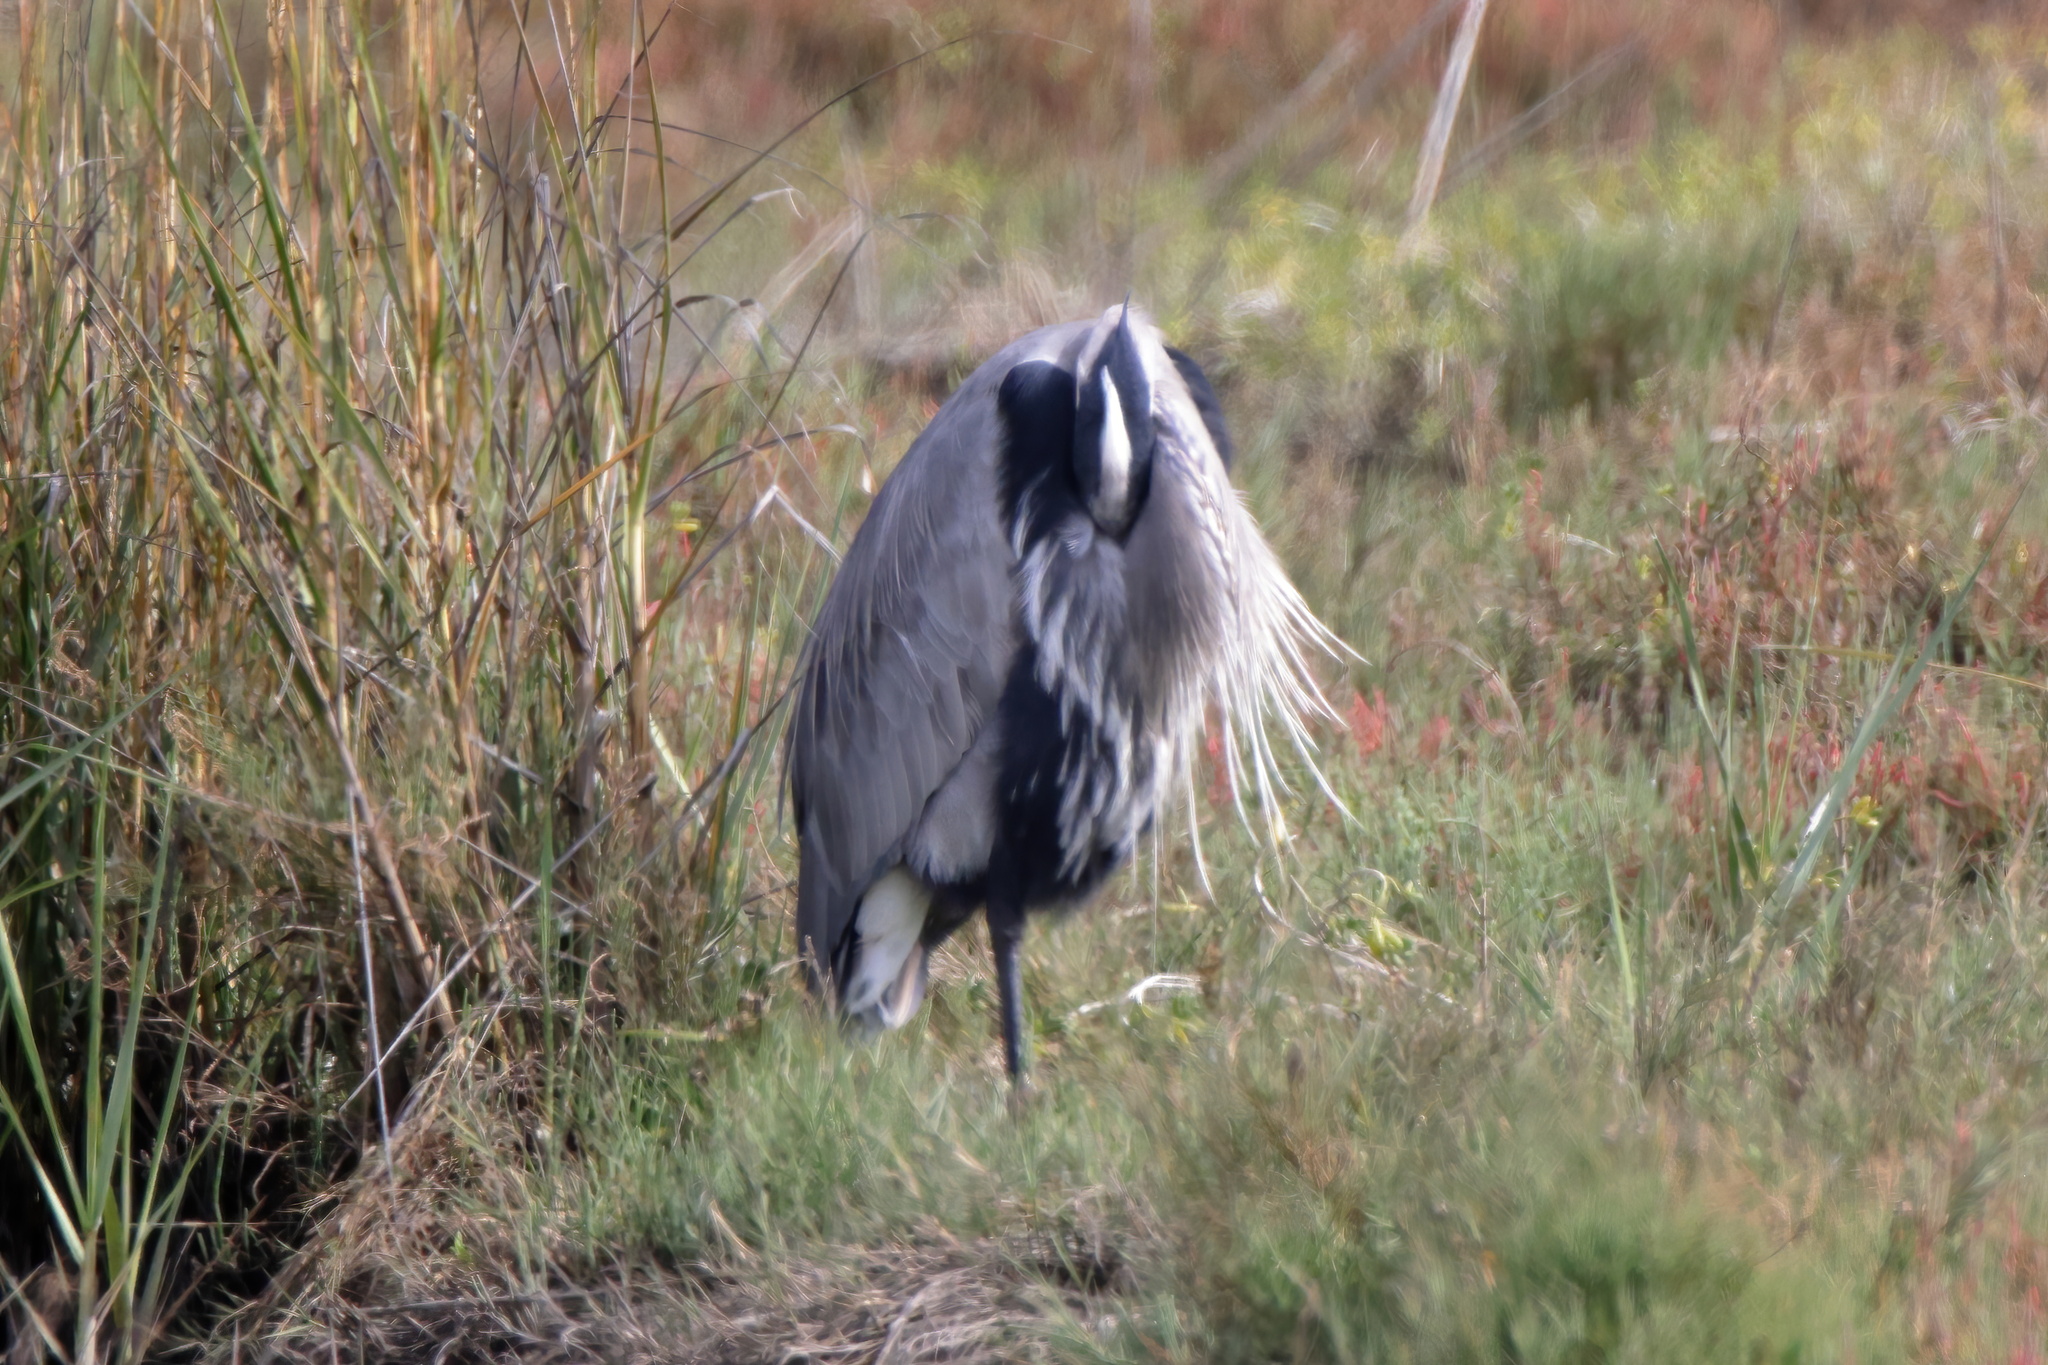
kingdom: Animalia
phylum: Chordata
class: Aves
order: Pelecaniformes
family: Ardeidae
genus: Ardea
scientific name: Ardea herodias
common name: Great blue heron
